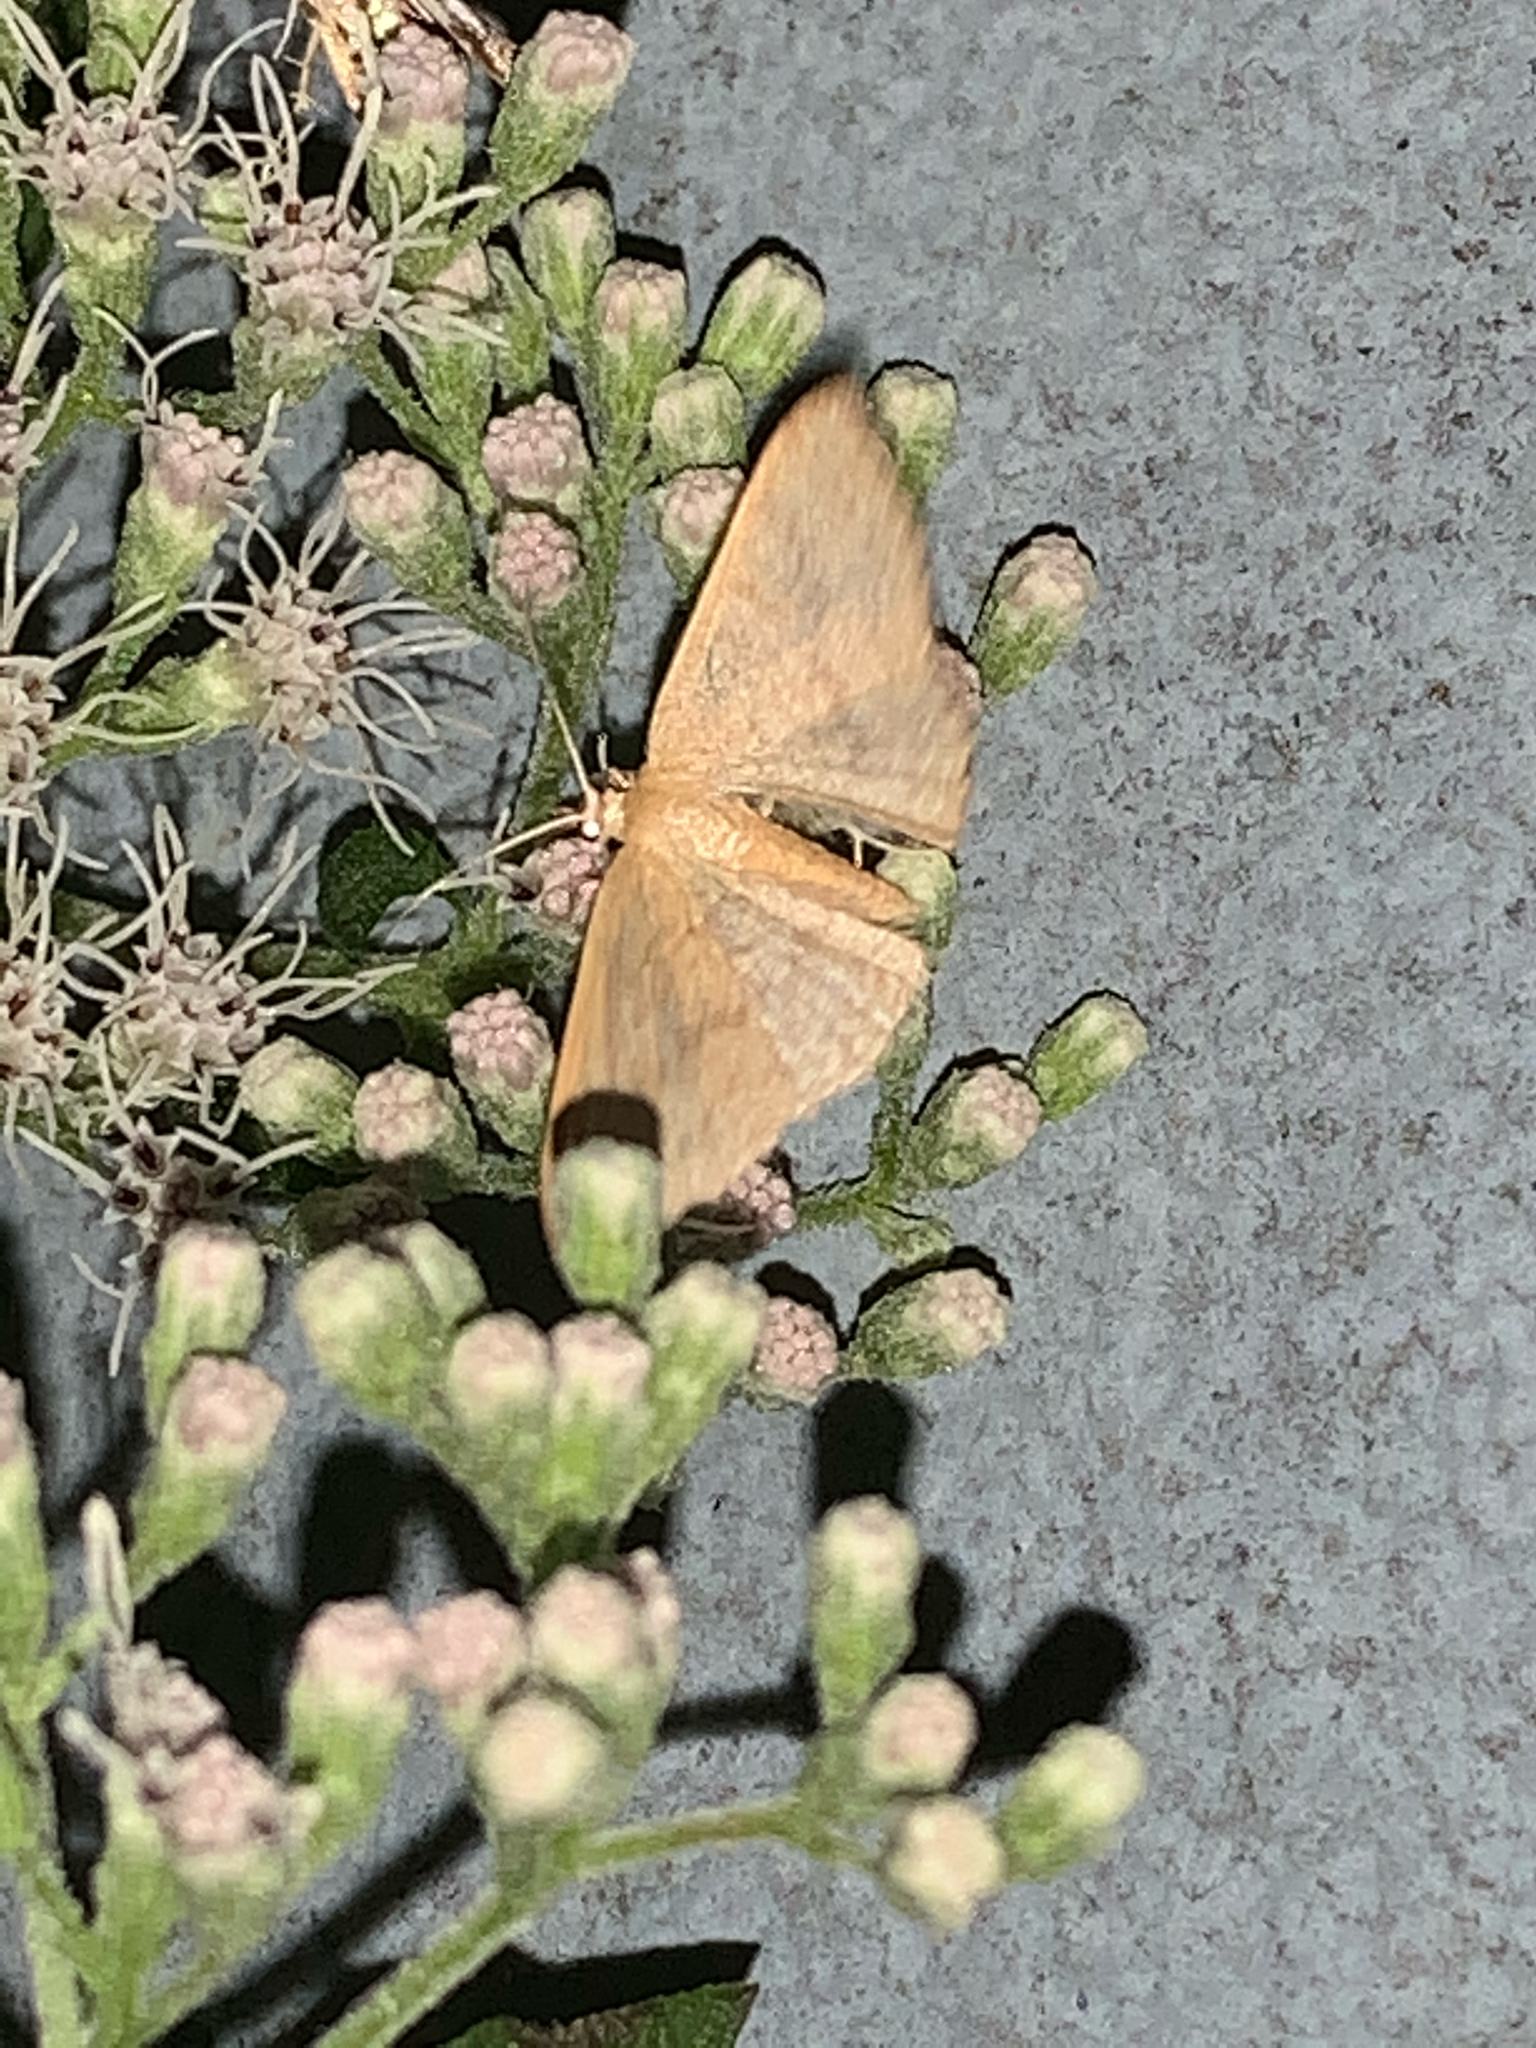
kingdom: Animalia
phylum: Arthropoda
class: Insecta
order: Lepidoptera
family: Geometridae
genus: Pleuroprucha
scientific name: Pleuroprucha insulsaria
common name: Common tan wave
